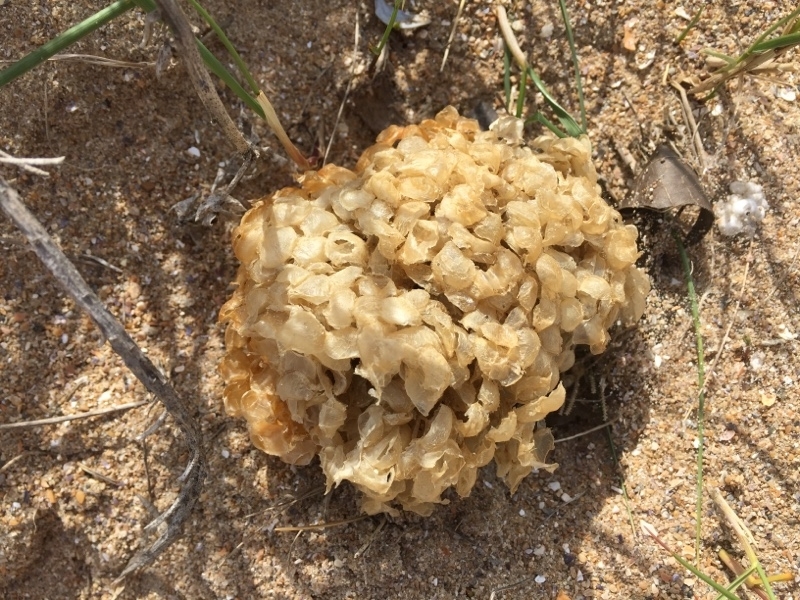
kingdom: Animalia
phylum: Mollusca
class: Gastropoda
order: Neogastropoda
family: Buccinidae
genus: Buccinum
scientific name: Buccinum undatum
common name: Common whelk
